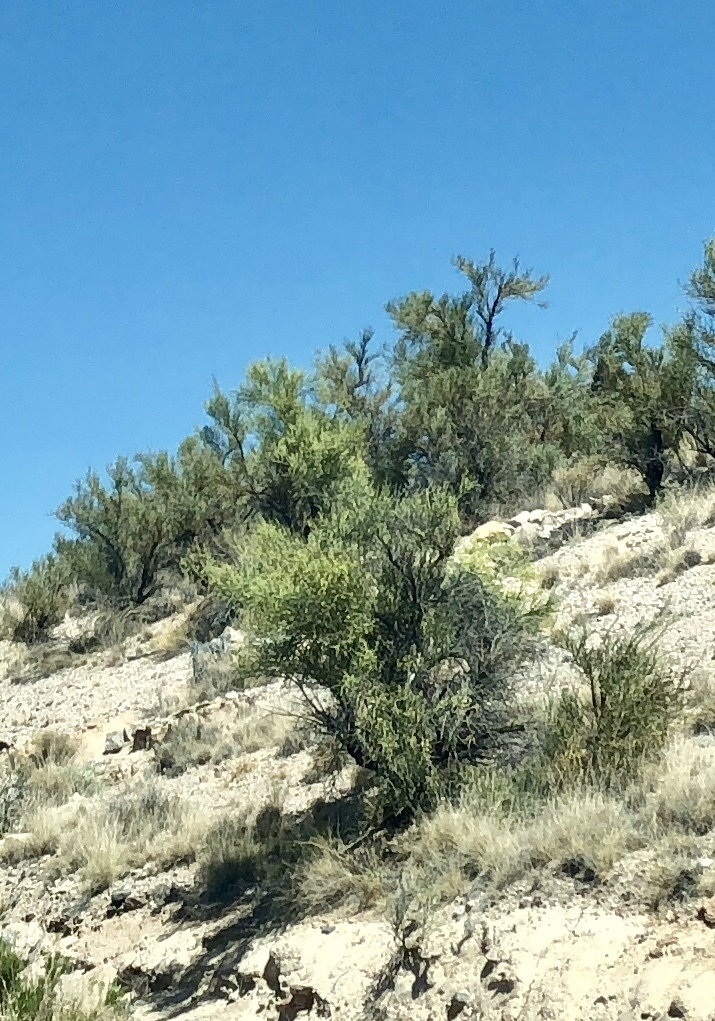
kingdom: Plantae
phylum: Tracheophyta
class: Magnoliopsida
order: Celastrales
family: Celastraceae
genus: Canotia
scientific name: Canotia holacantha
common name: Crucifixion thorns
